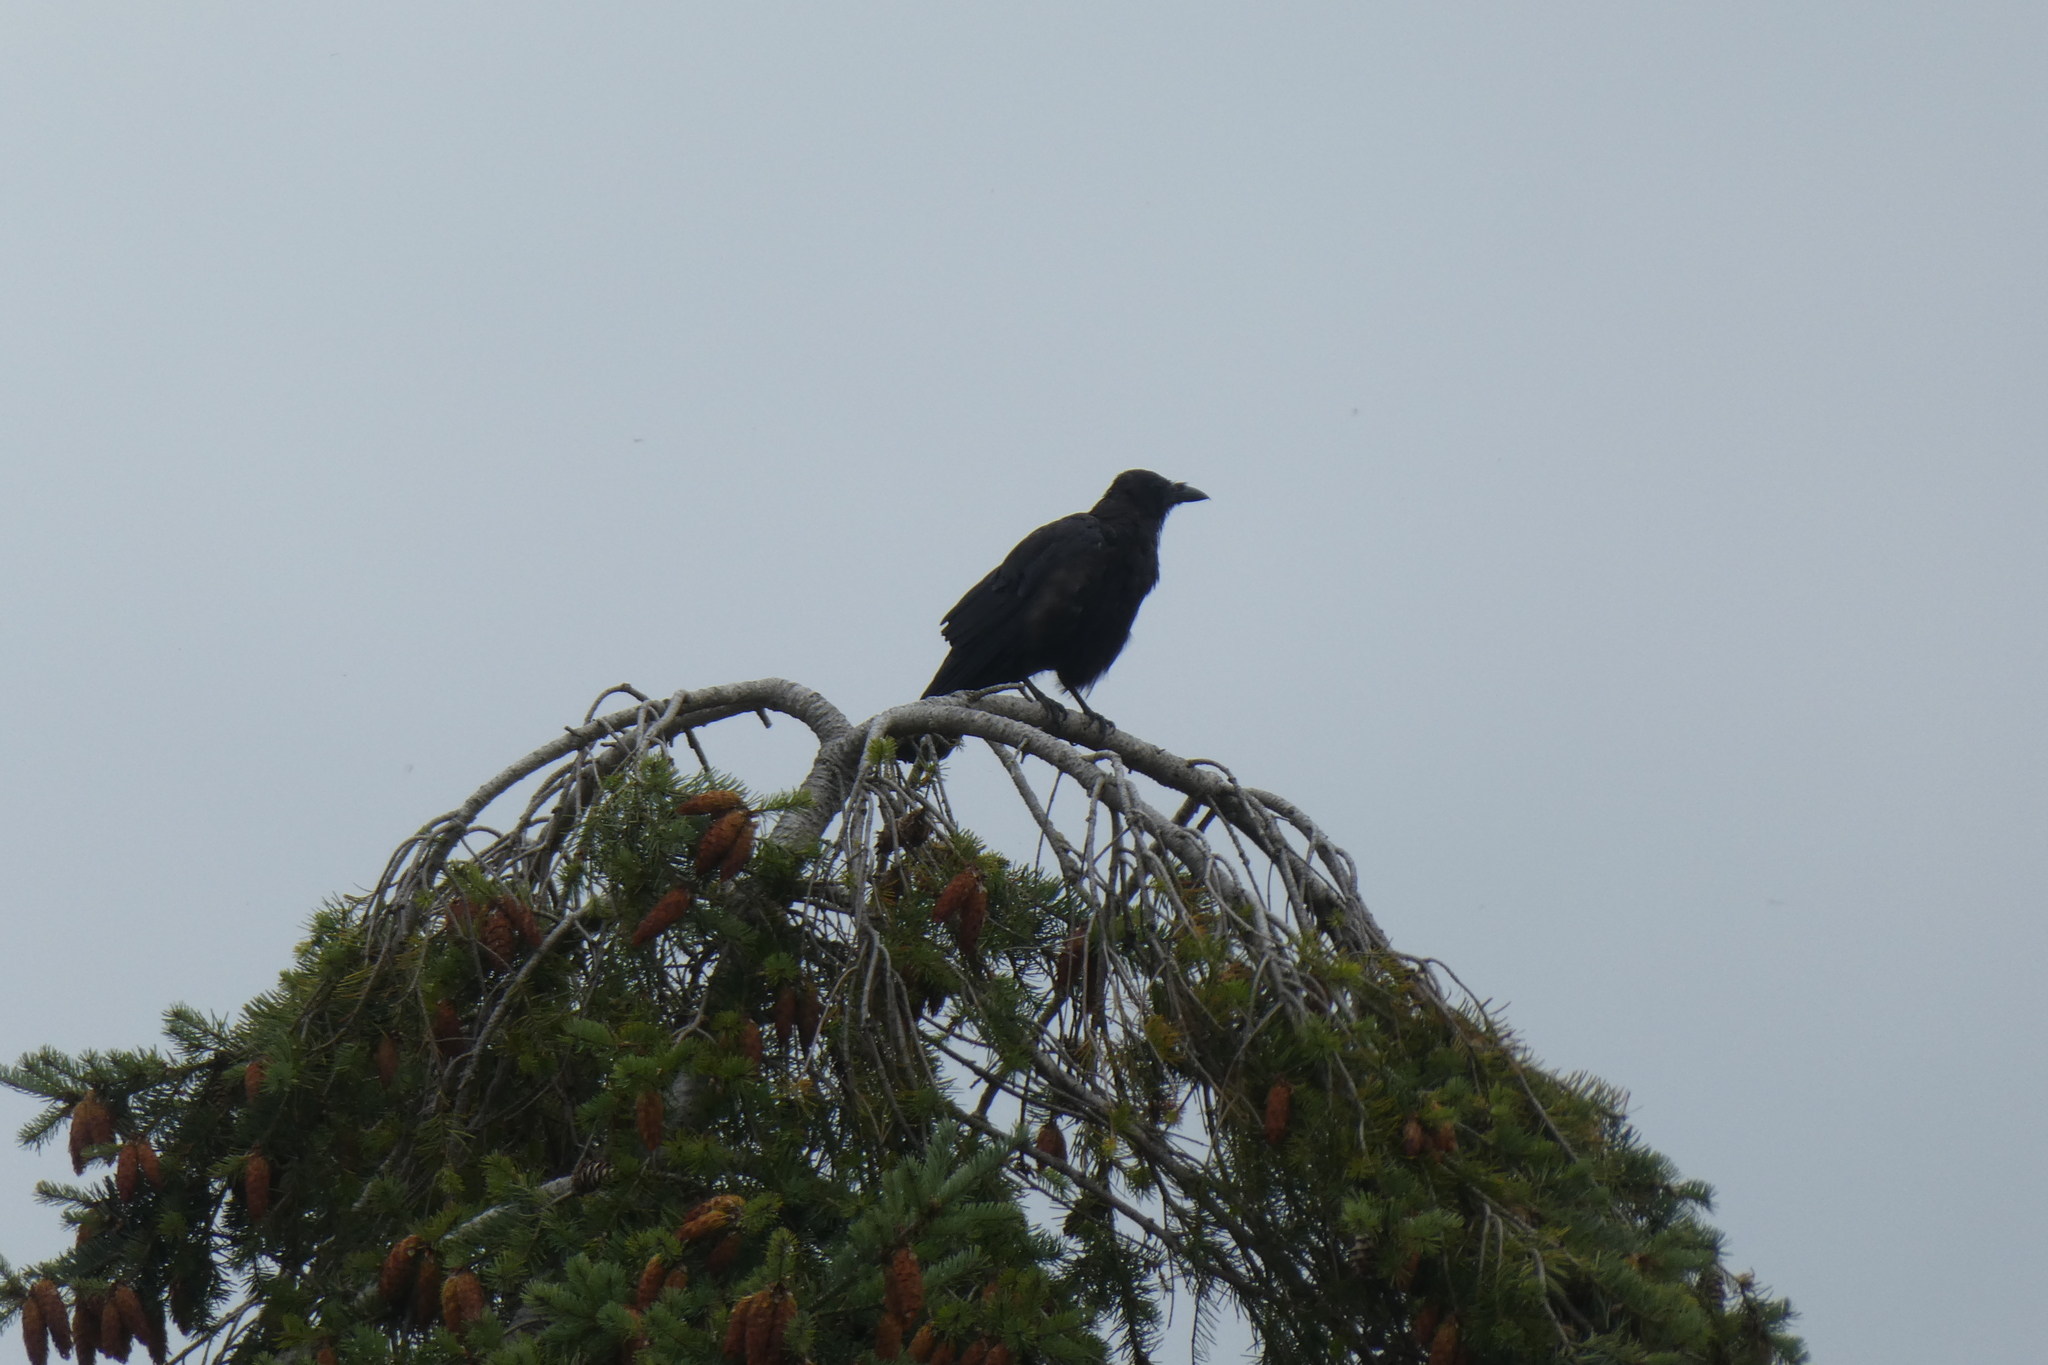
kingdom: Animalia
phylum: Chordata
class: Aves
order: Passeriformes
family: Corvidae
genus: Corvus
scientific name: Corvus brachyrhynchos
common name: American crow
